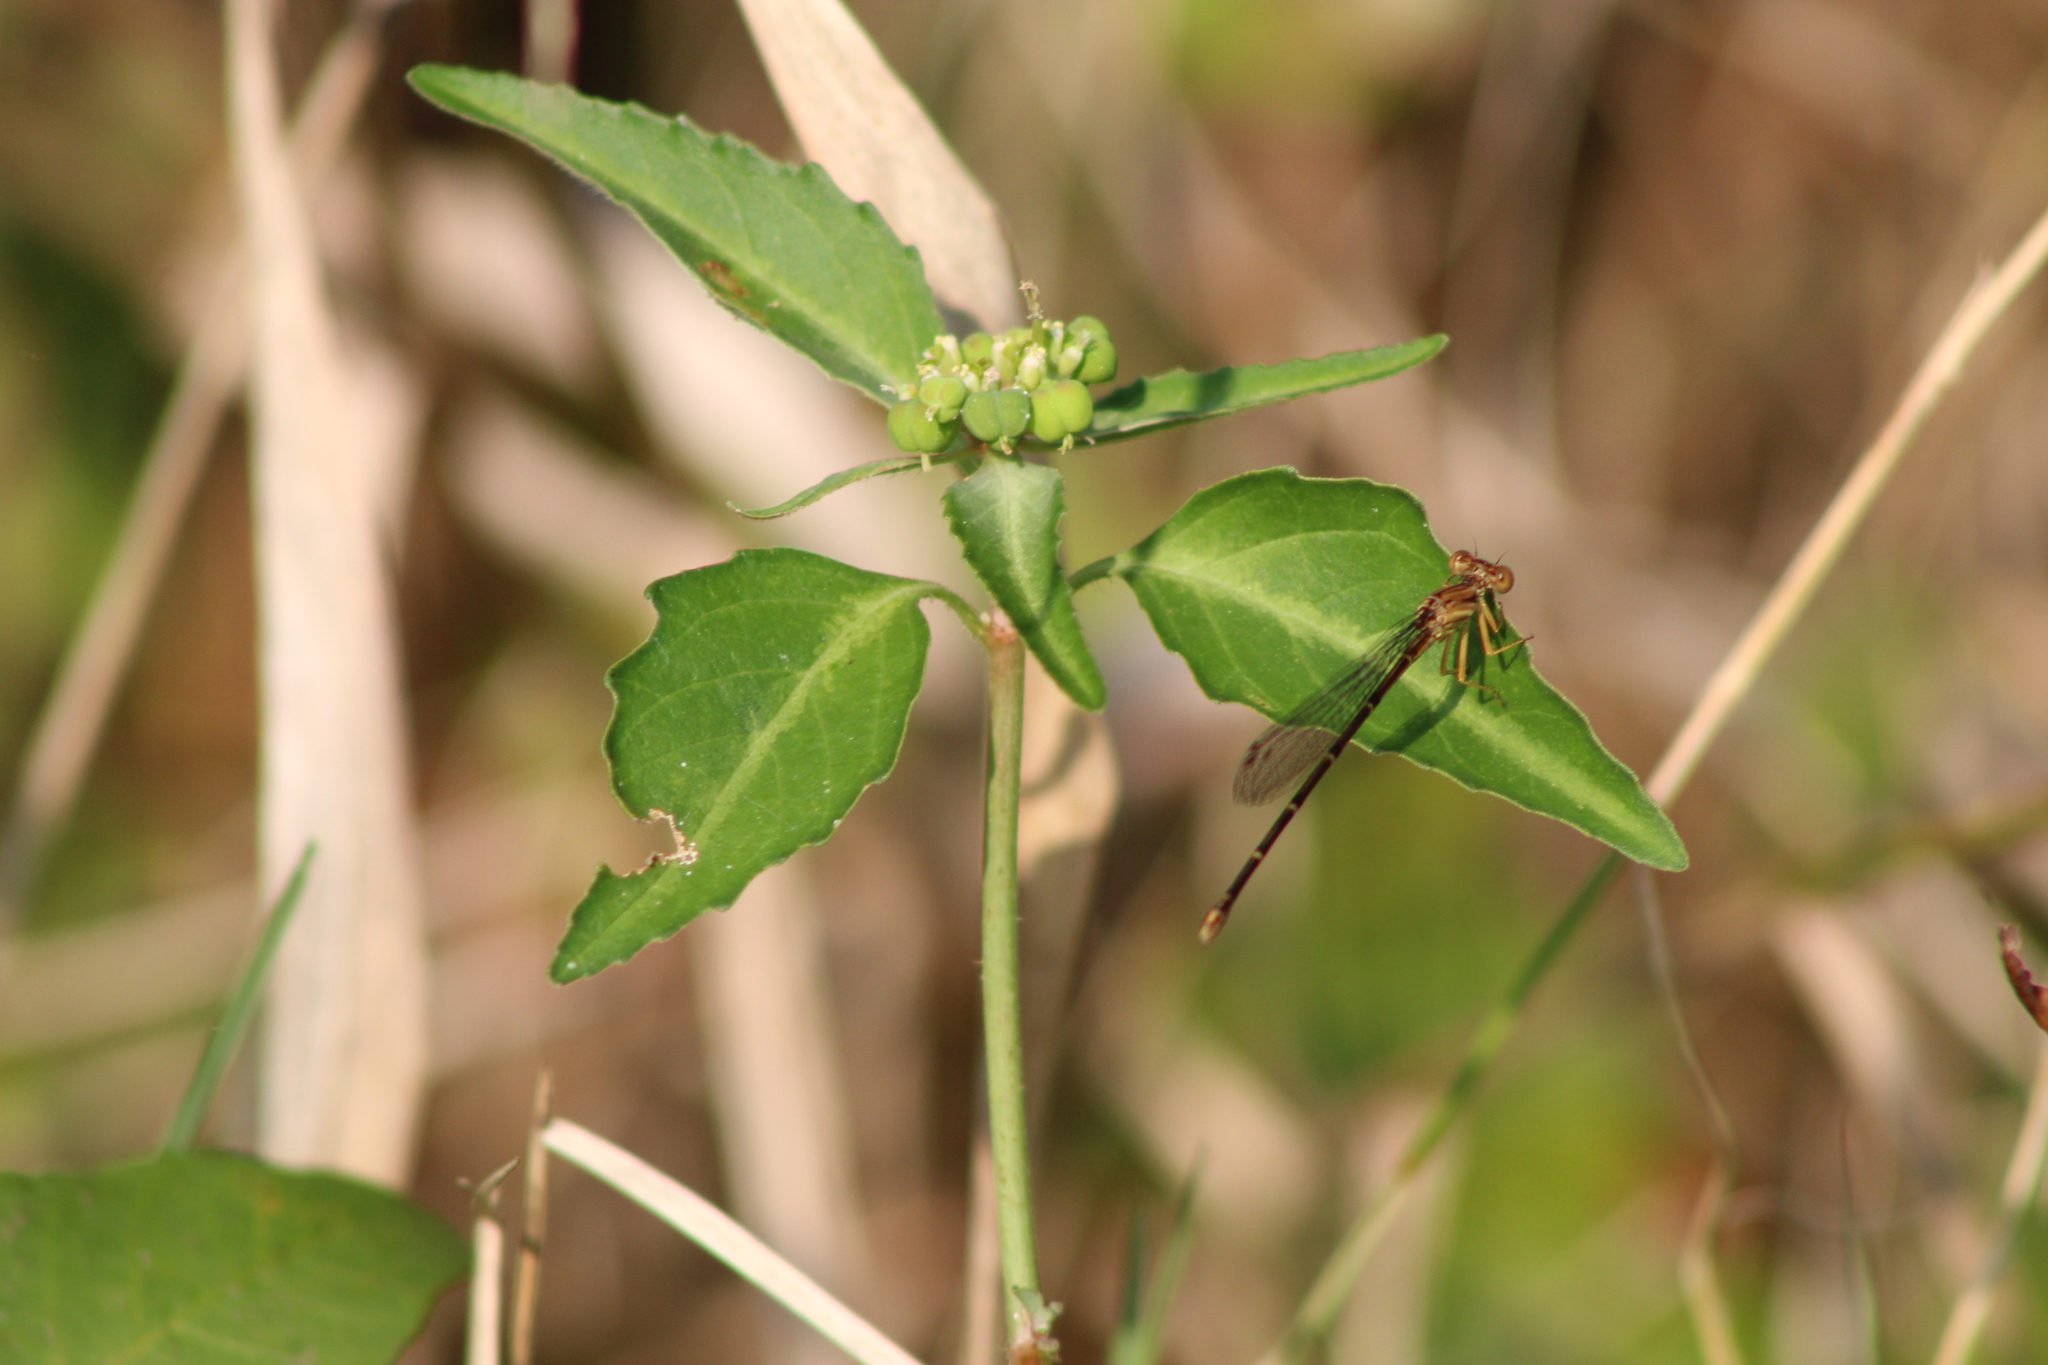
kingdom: Plantae
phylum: Tracheophyta
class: Magnoliopsida
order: Malpighiales
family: Euphorbiaceae
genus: Euphorbia
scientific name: Euphorbia dentata
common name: Dentate spurge
